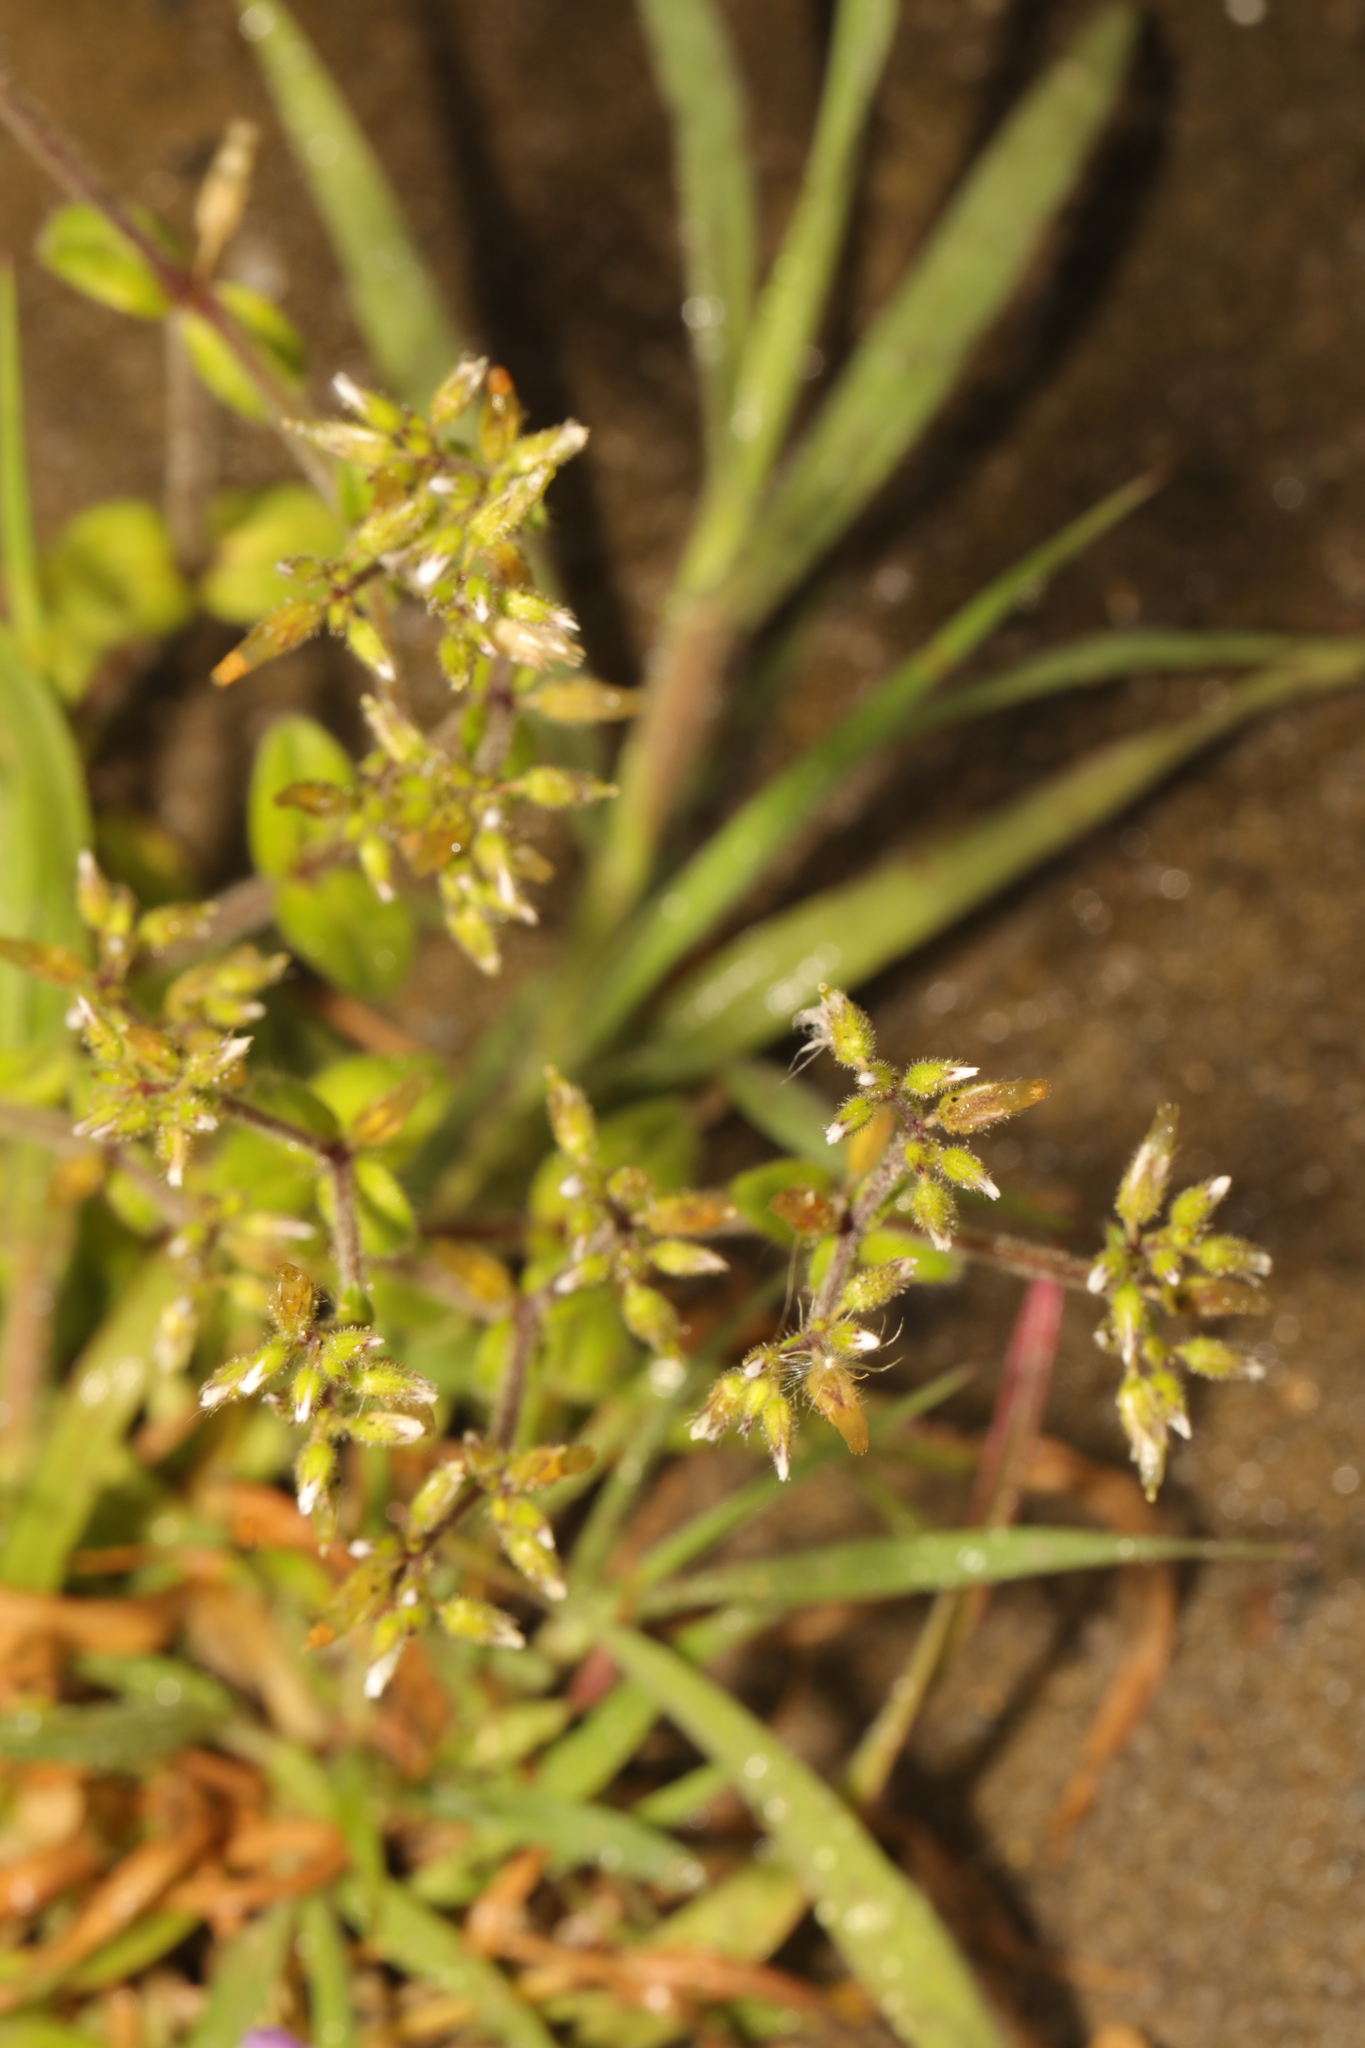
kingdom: Plantae
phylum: Tracheophyta
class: Magnoliopsida
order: Caryophyllales
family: Caryophyllaceae
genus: Cerastium
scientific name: Cerastium glomeratum
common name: Sticky chickweed
